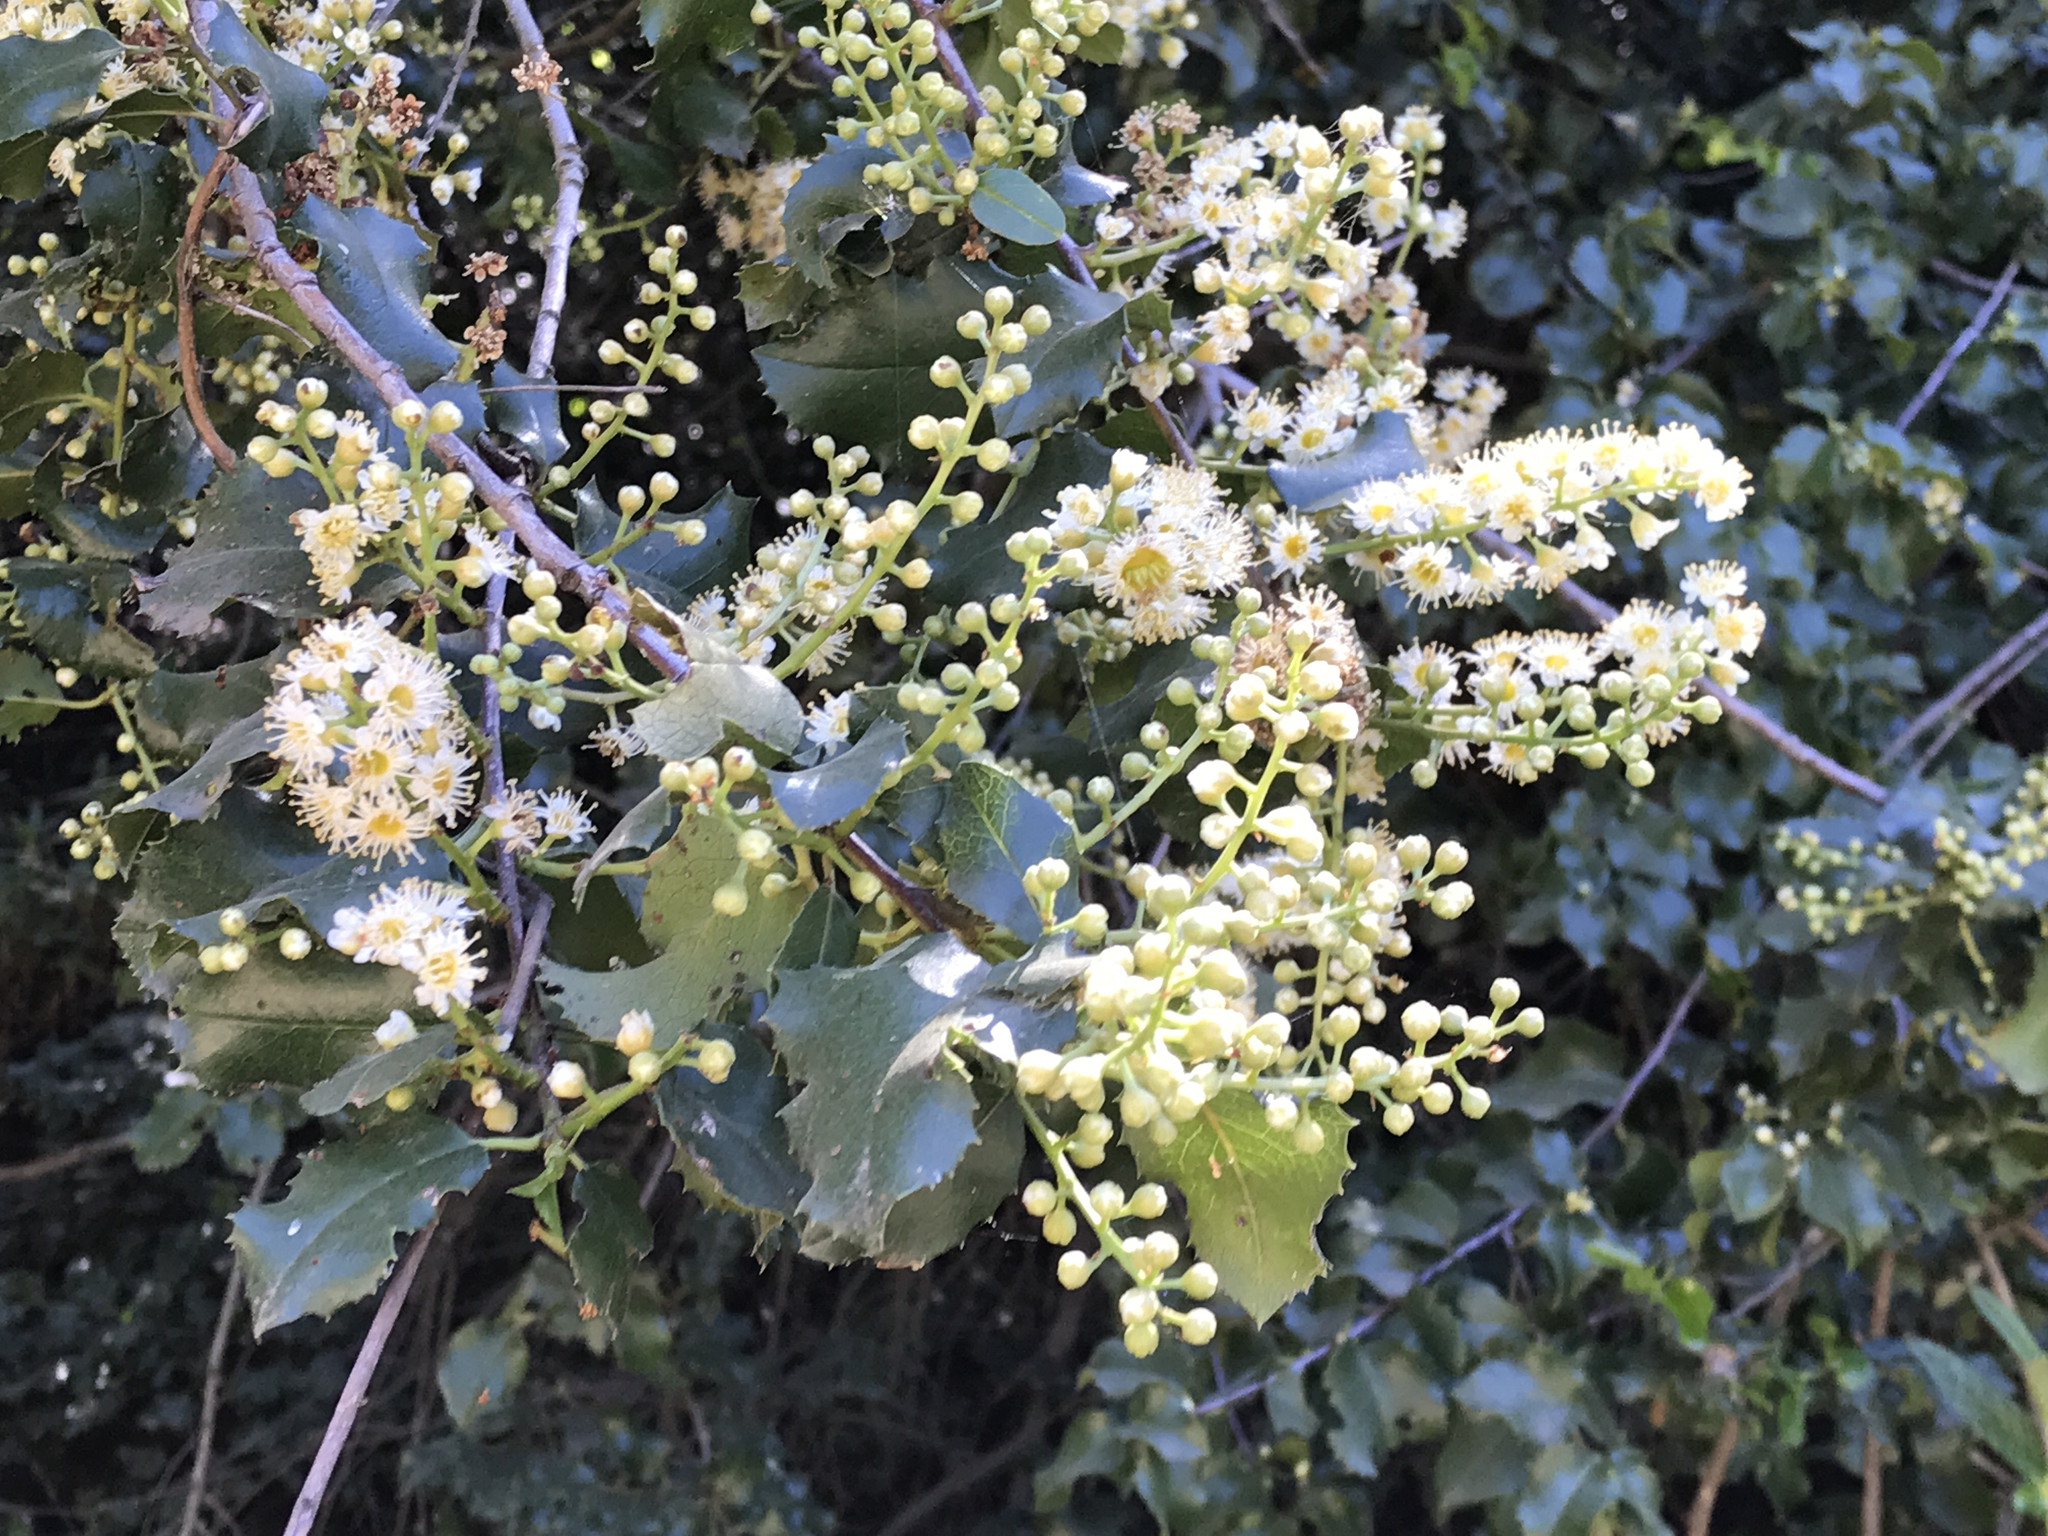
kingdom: Plantae
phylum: Tracheophyta
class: Magnoliopsida
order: Rosales
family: Rosaceae
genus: Prunus
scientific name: Prunus ilicifolia
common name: Hollyleaf cherry
